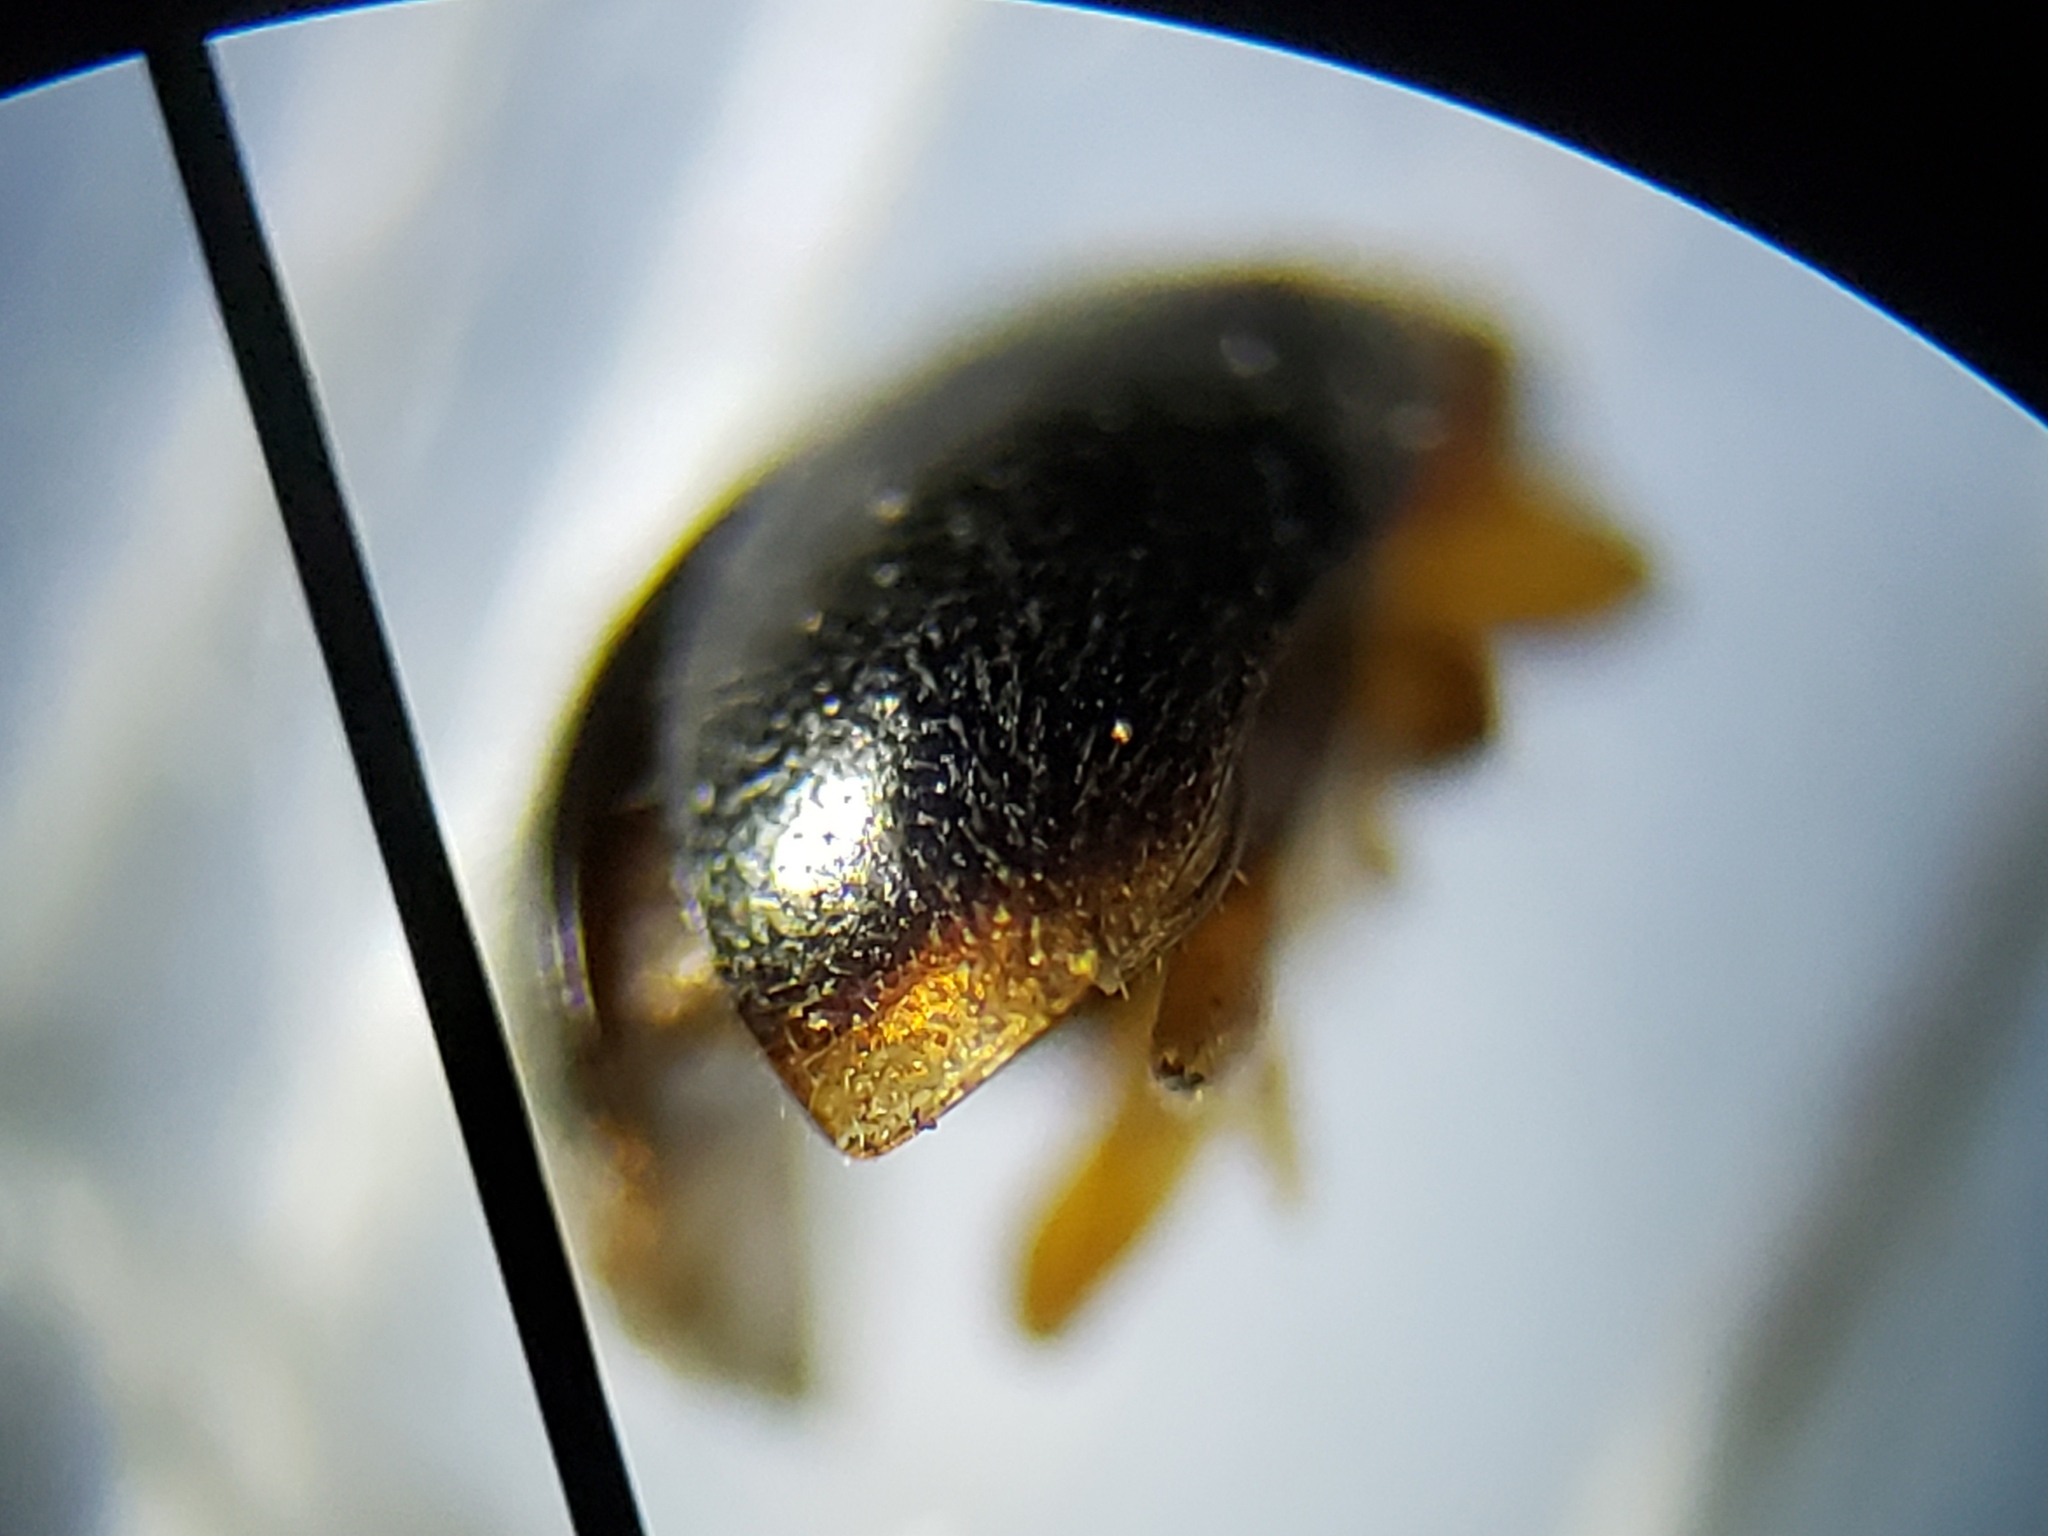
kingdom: Animalia
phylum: Arthropoda
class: Insecta
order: Coleoptera
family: Coccinellidae
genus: Diomus
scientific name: Diomus xanthaspis
